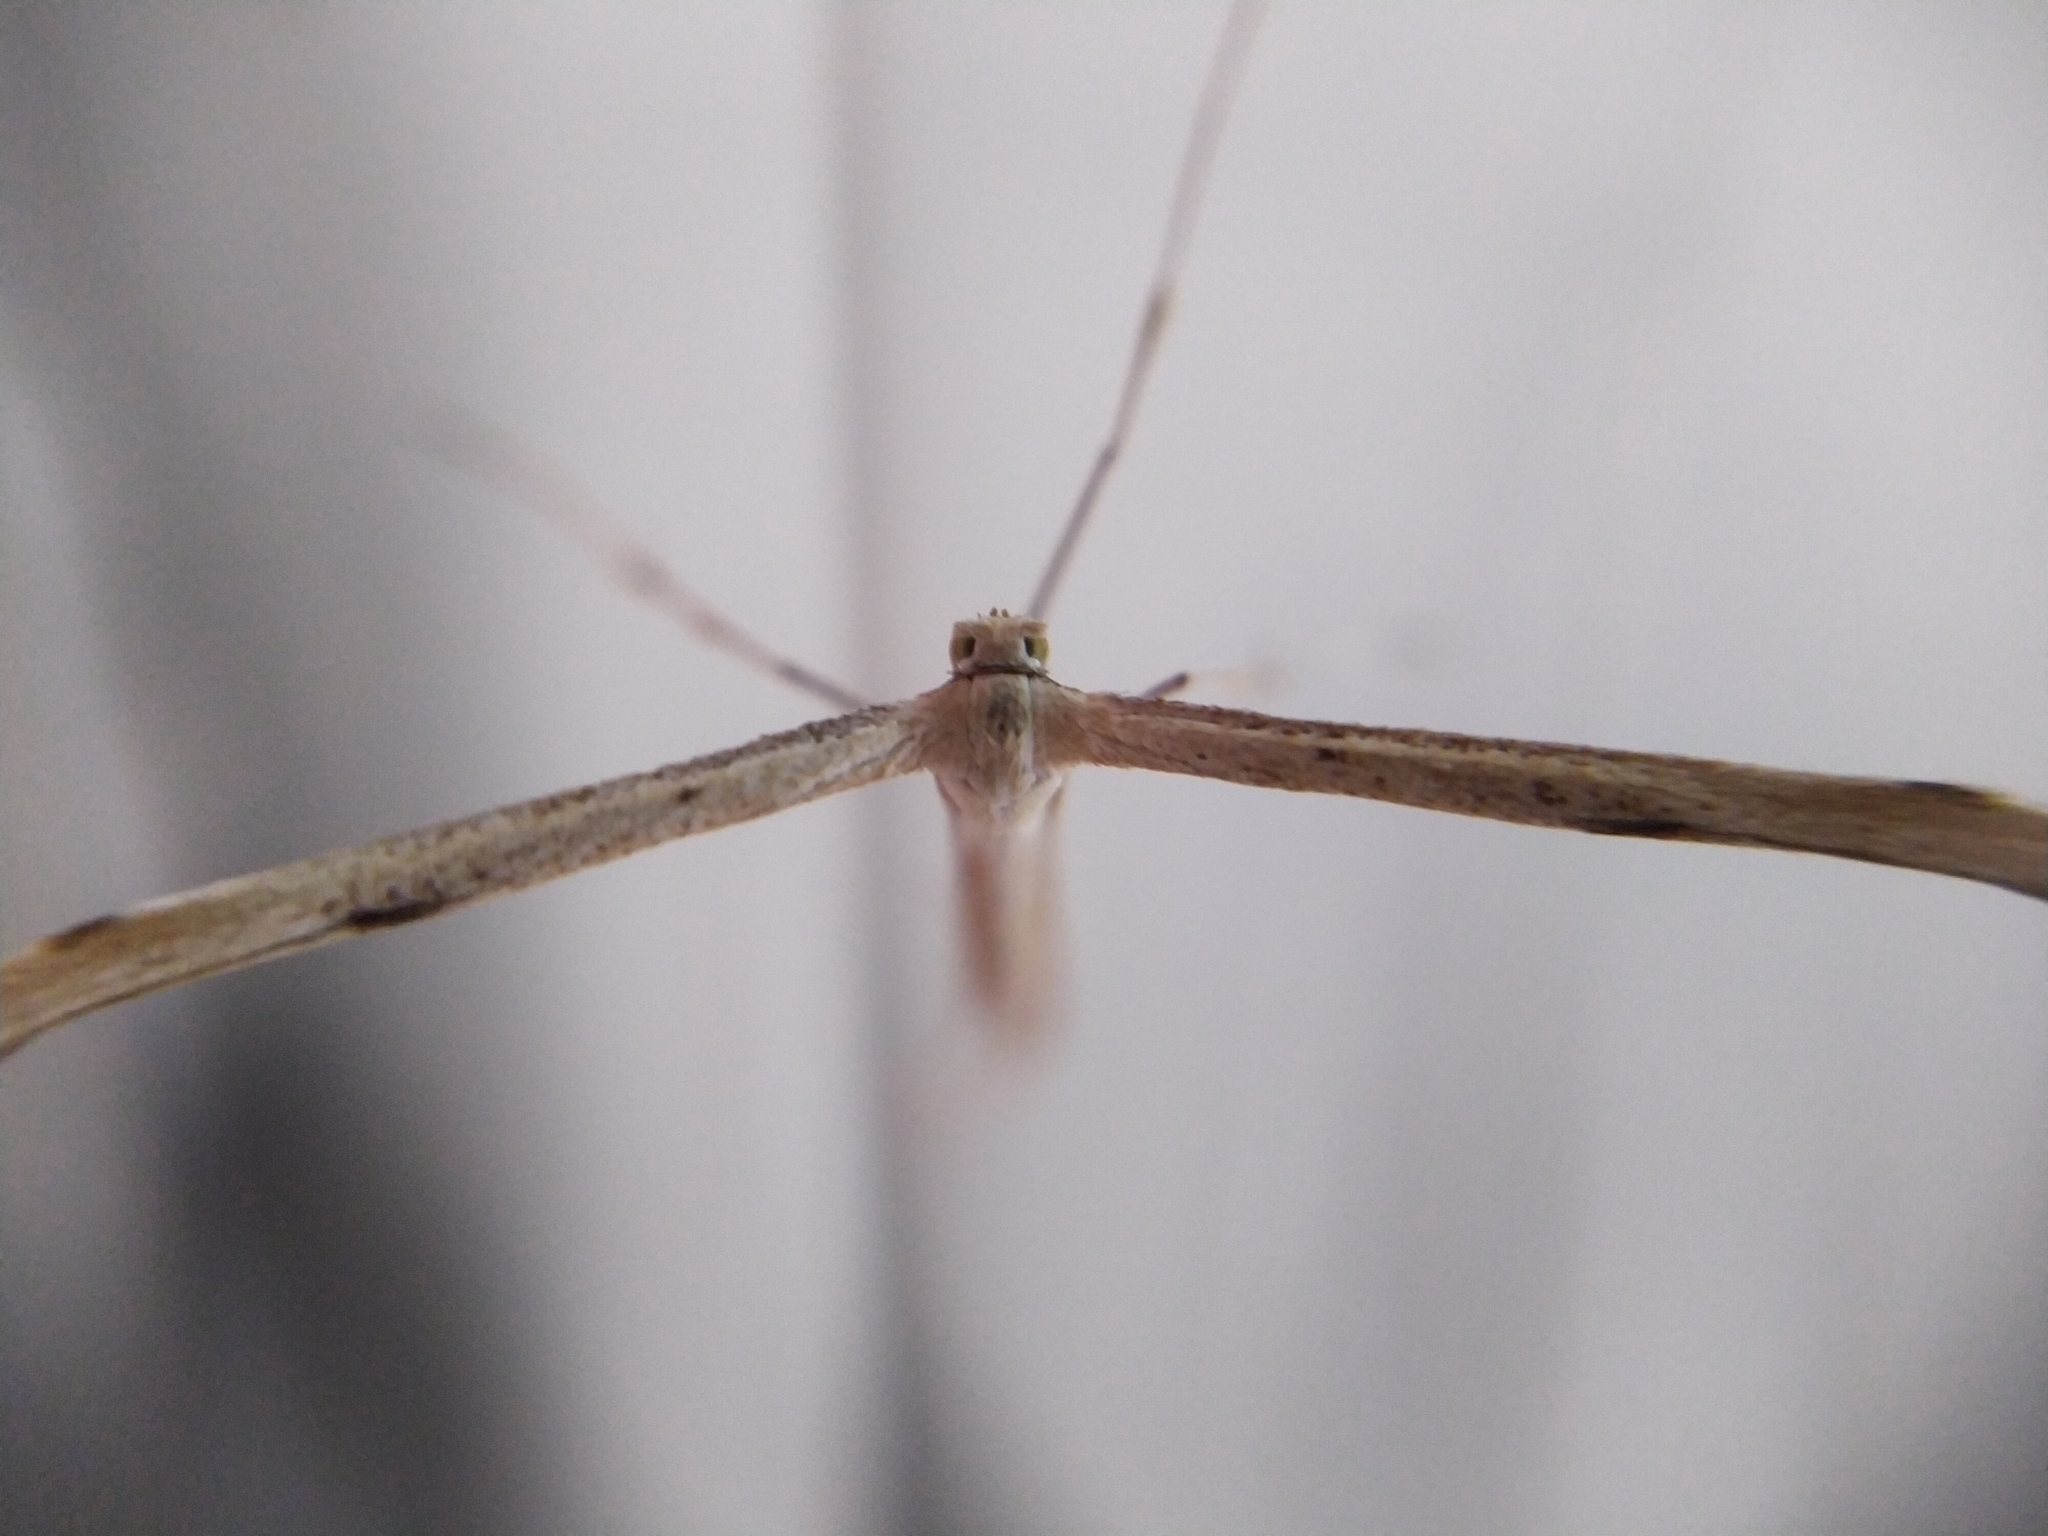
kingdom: Animalia
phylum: Arthropoda
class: Insecta
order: Lepidoptera
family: Pterophoridae
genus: Emmelina
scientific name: Emmelina monodactyla
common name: Common plume
